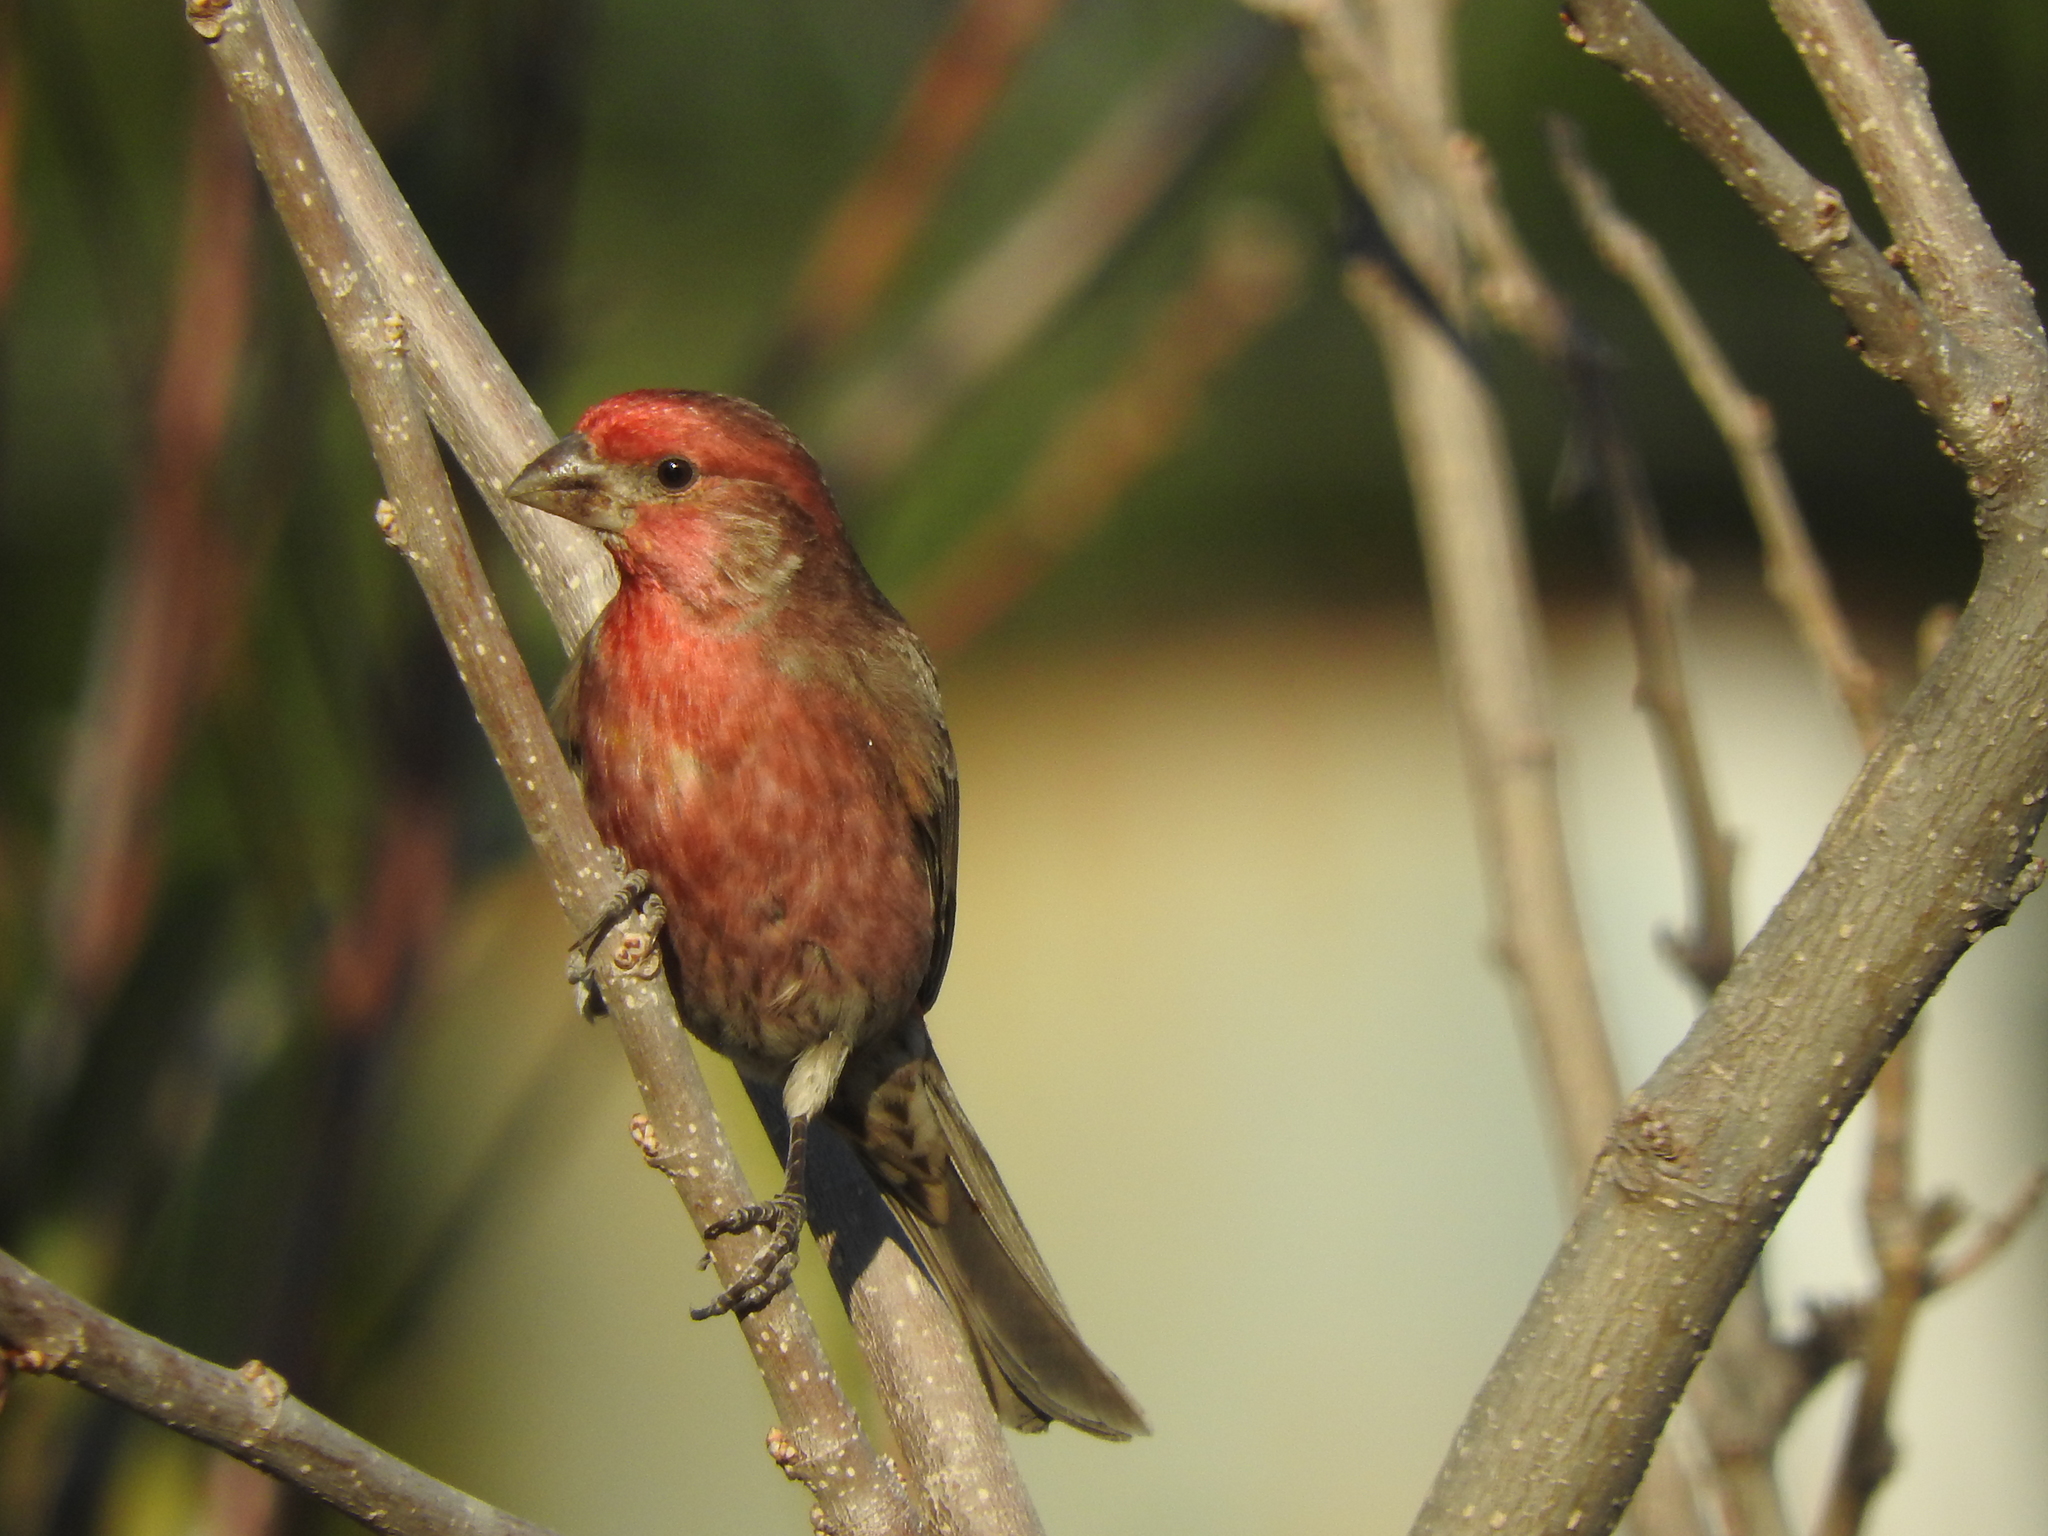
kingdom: Animalia
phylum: Chordata
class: Aves
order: Passeriformes
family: Fringillidae
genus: Haemorhous
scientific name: Haemorhous mexicanus
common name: House finch
